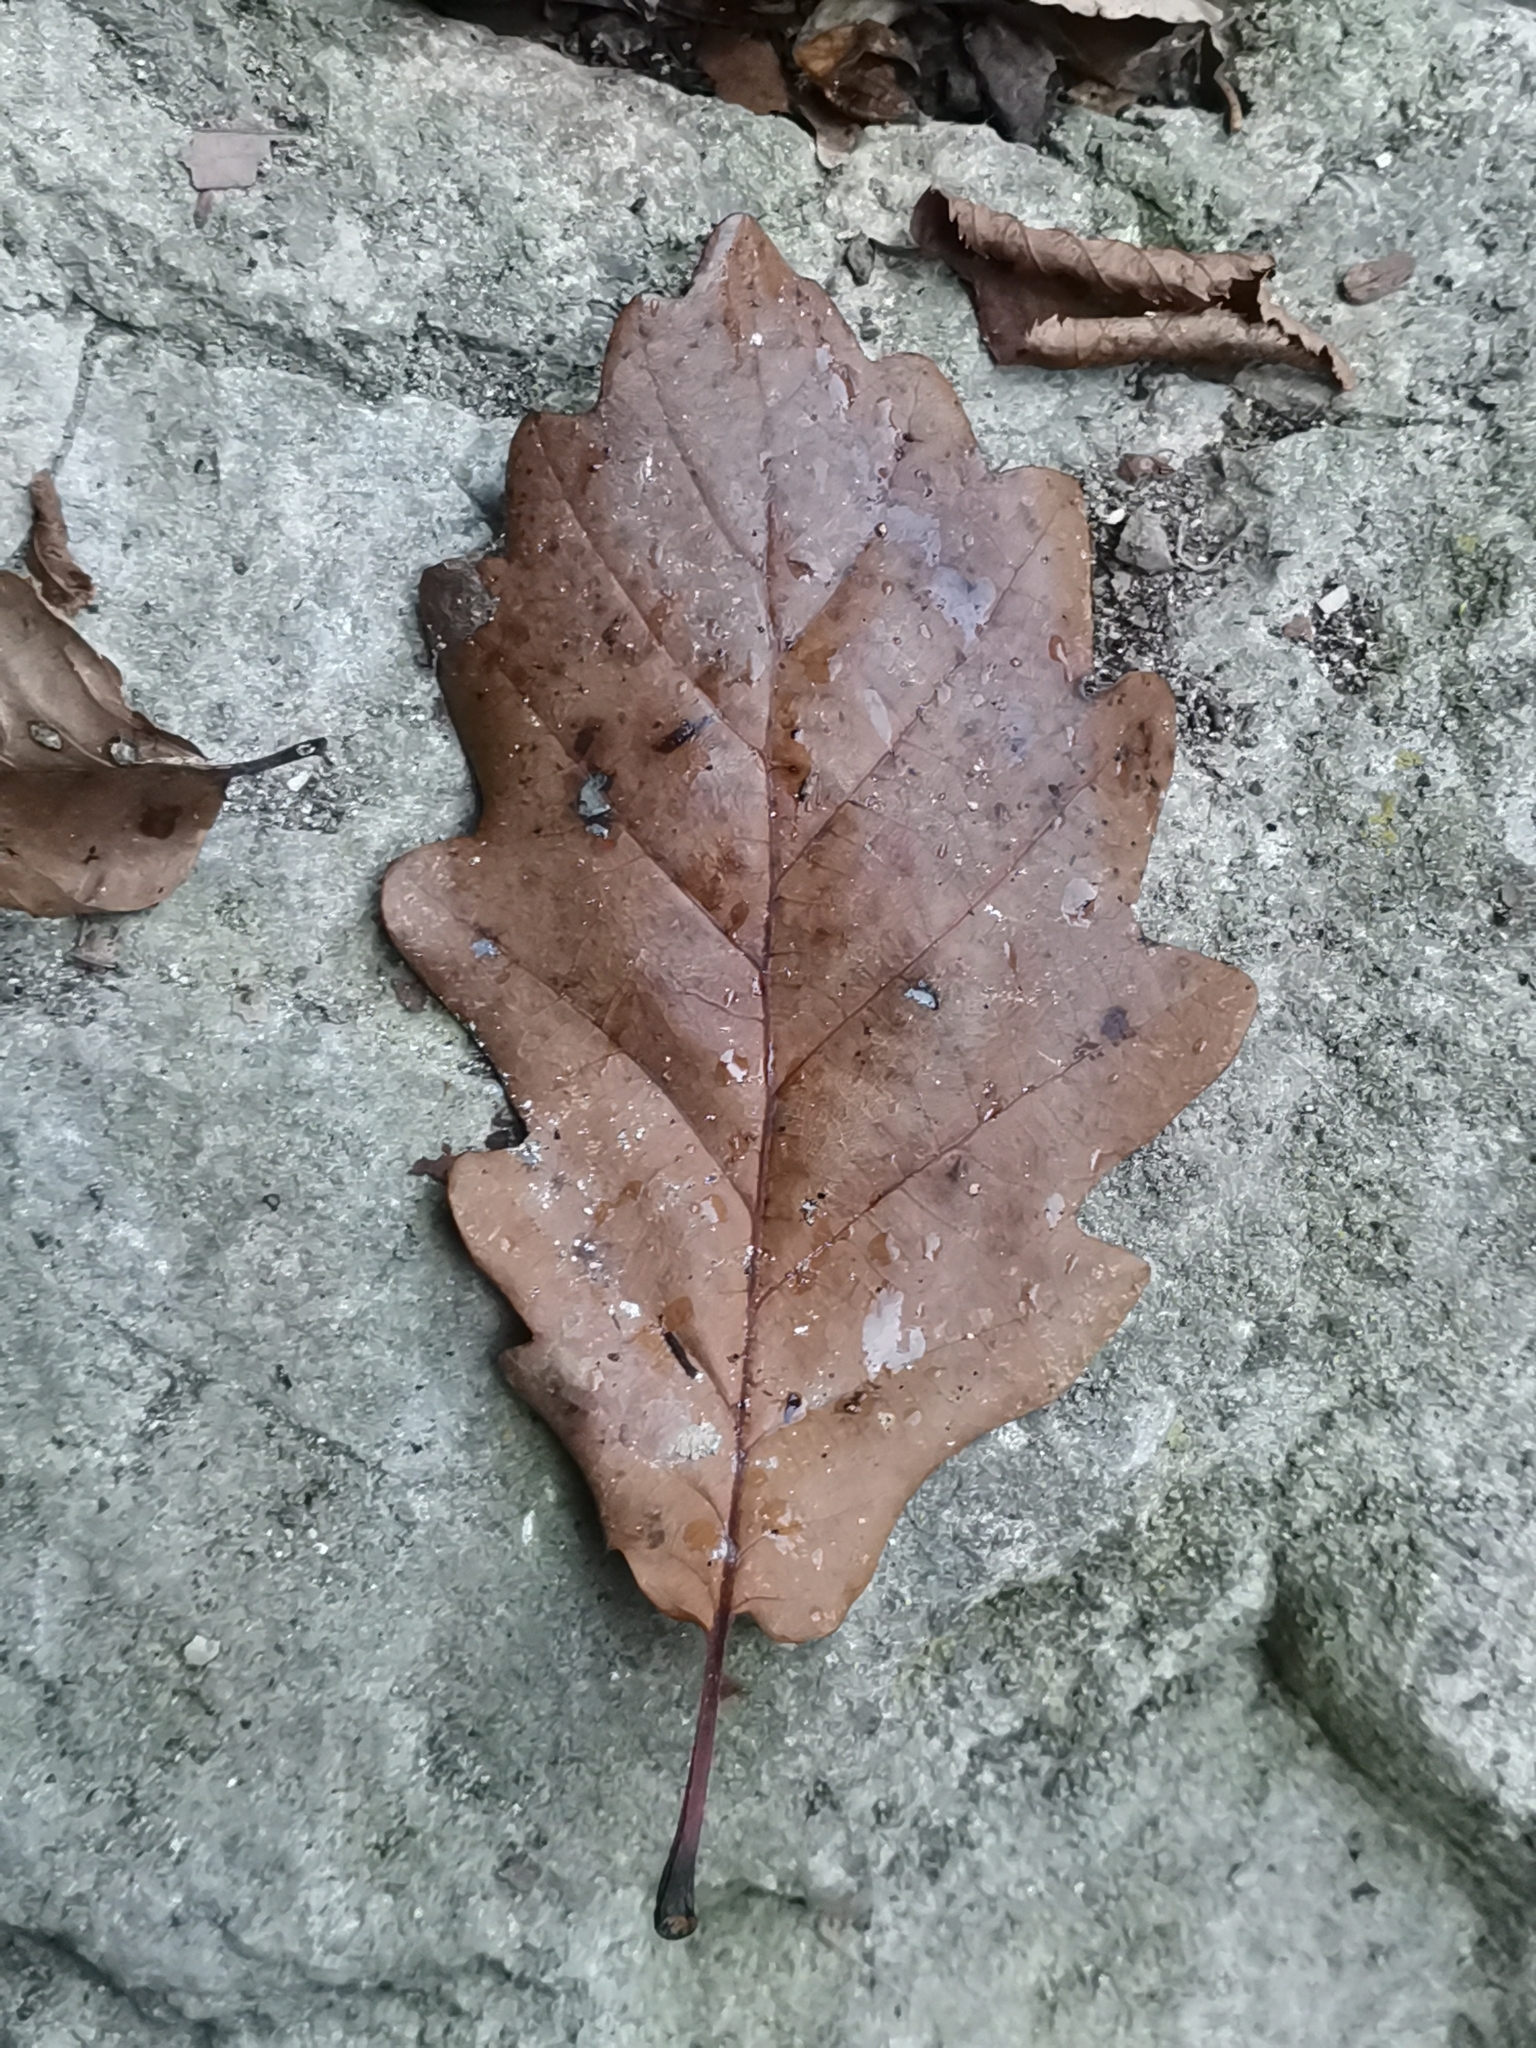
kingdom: Plantae
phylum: Tracheophyta
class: Magnoliopsida
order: Fagales
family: Fagaceae
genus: Quercus
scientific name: Quercus petraea
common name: Sessile oak
